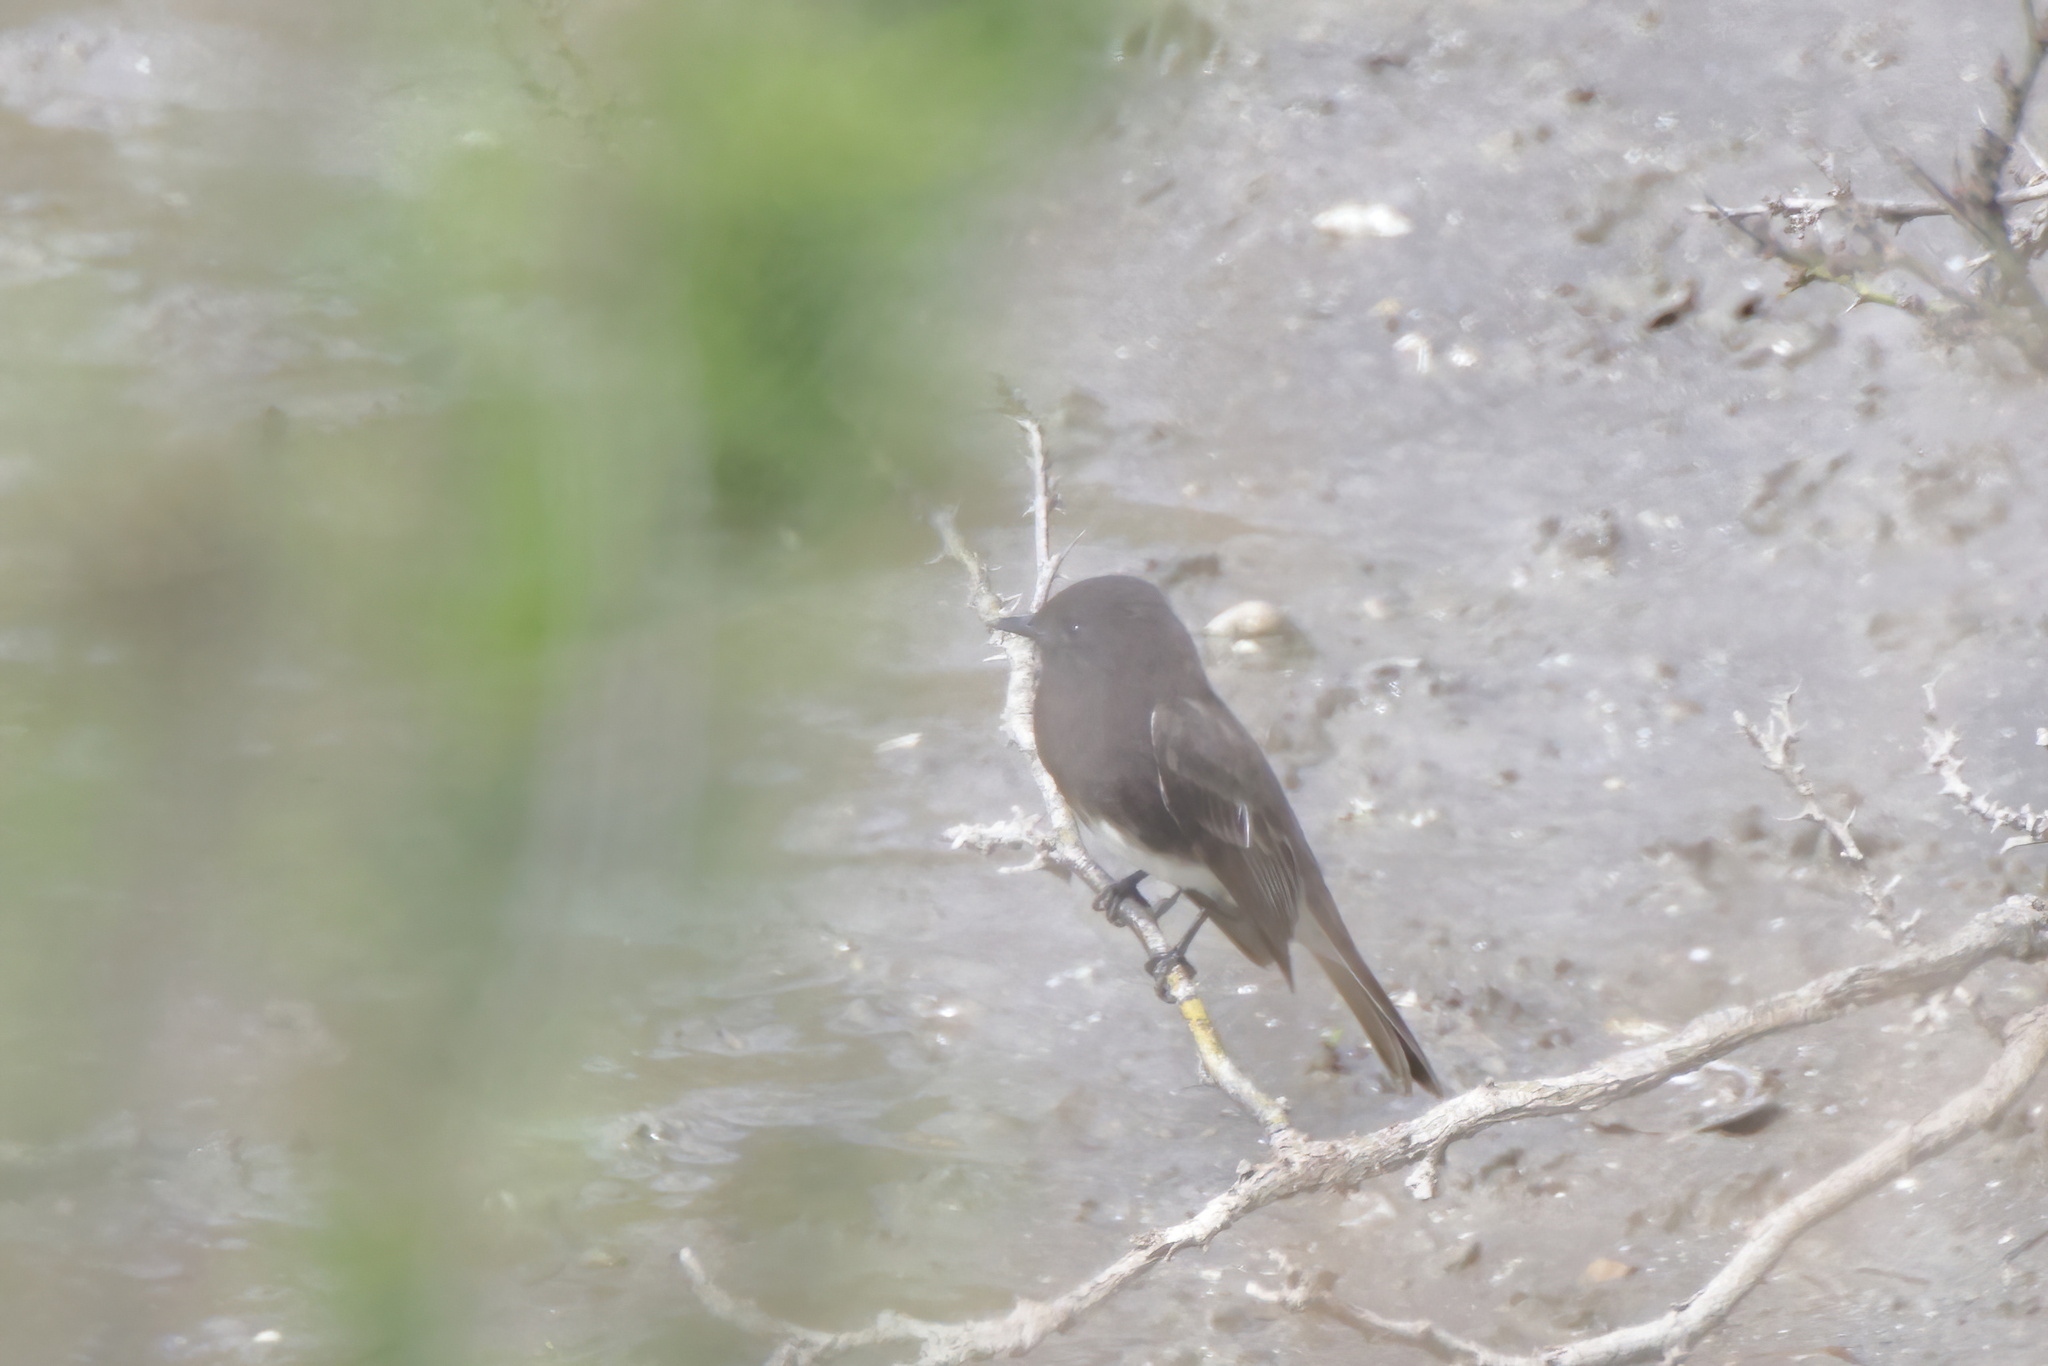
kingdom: Animalia
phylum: Chordata
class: Aves
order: Passeriformes
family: Tyrannidae
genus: Sayornis
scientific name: Sayornis nigricans
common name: Black phoebe
